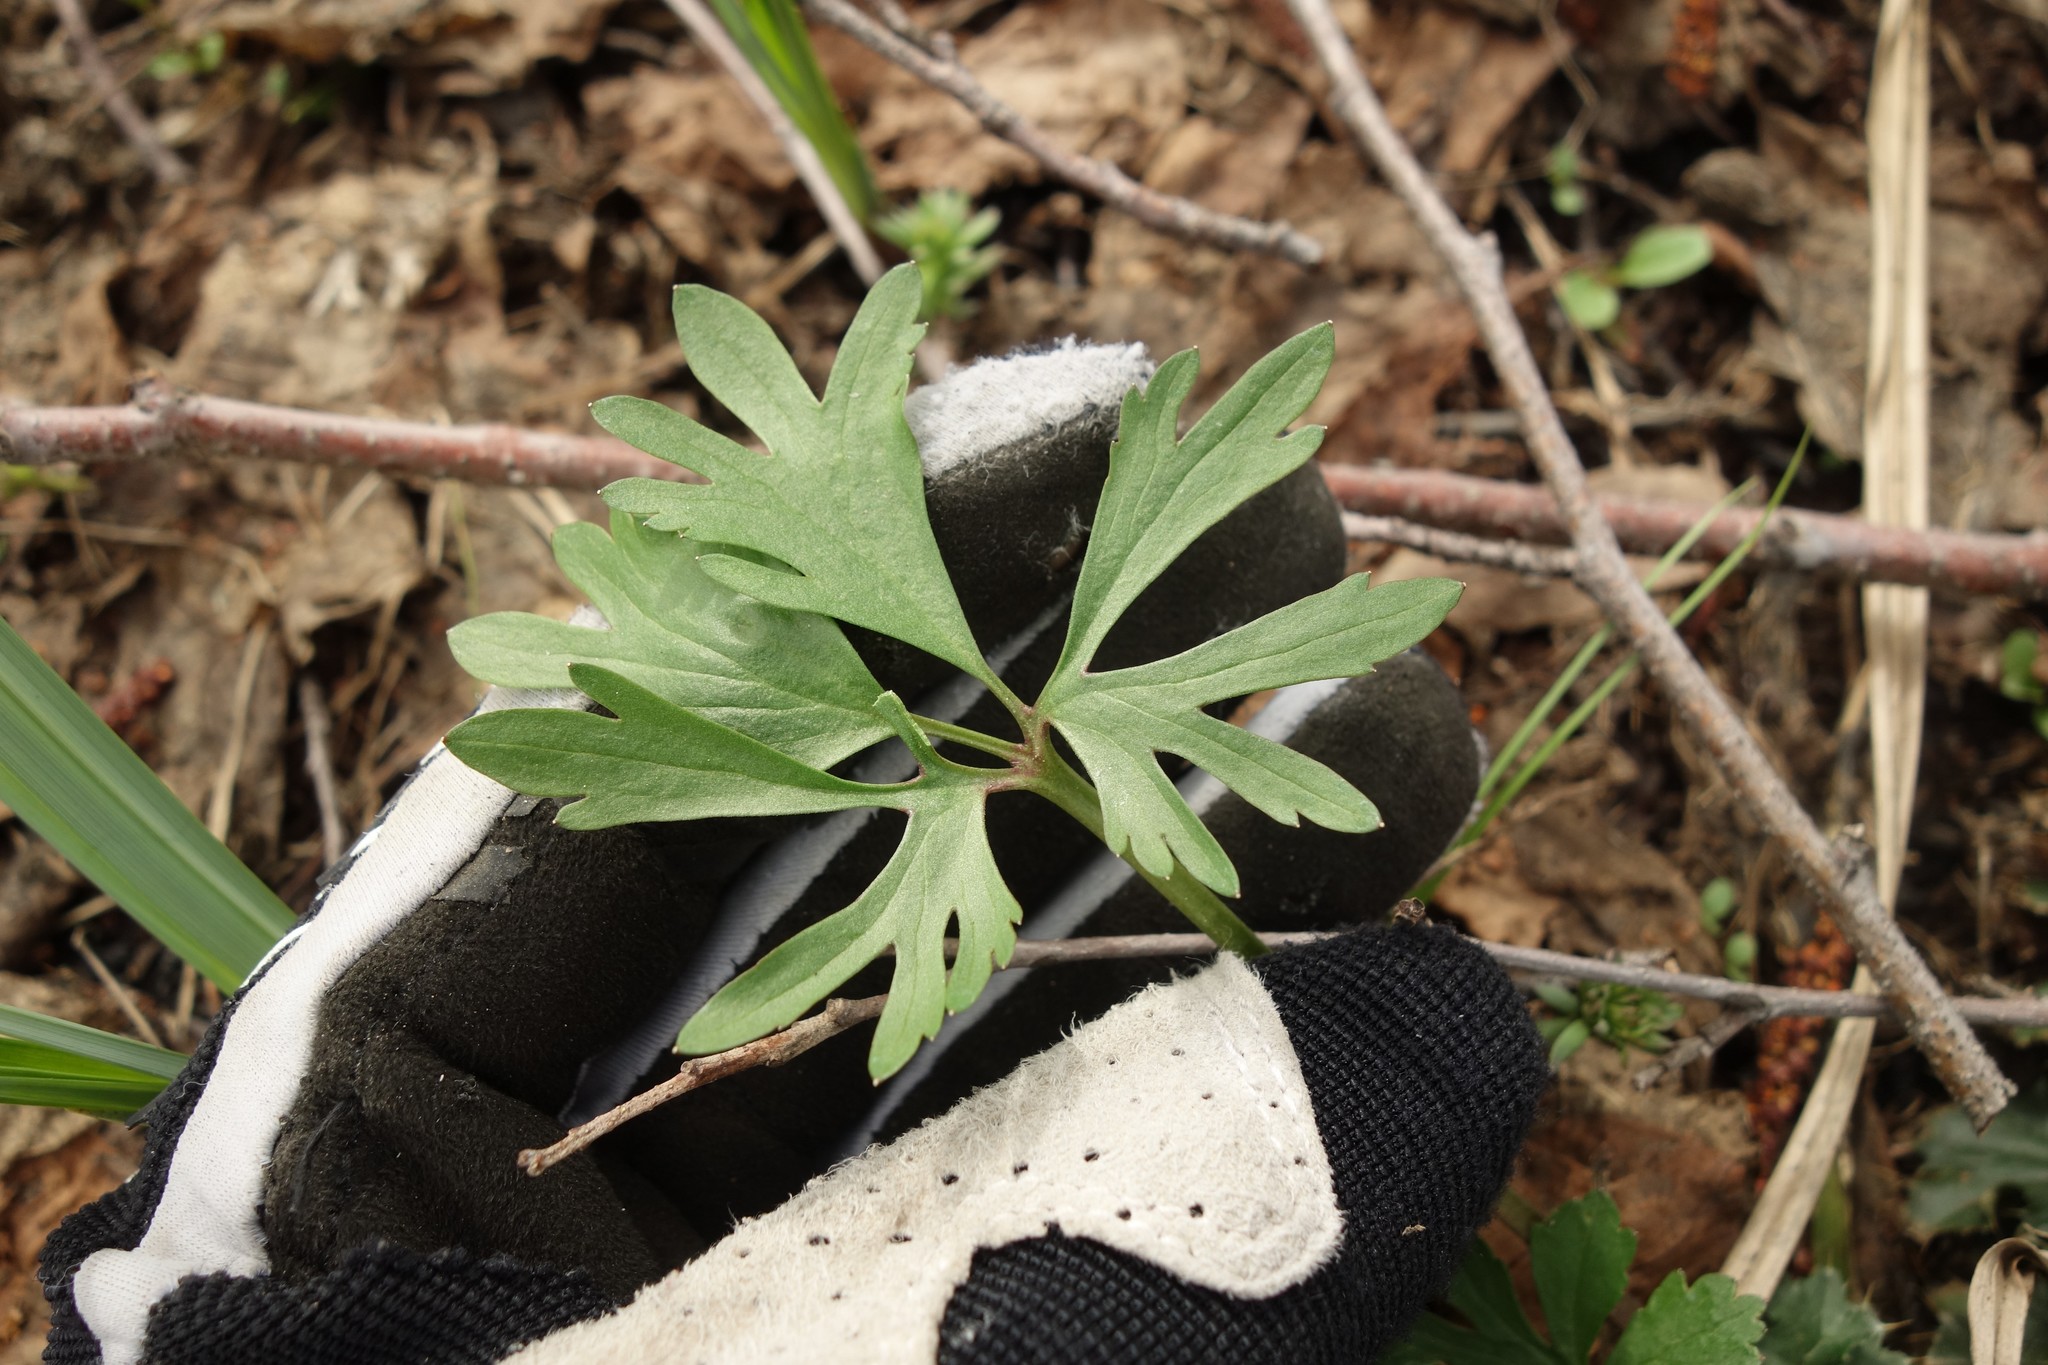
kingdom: Plantae
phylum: Tracheophyta
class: Magnoliopsida
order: Ranunculales
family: Ranunculaceae
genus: Ranunculus
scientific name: Ranunculus auricomus
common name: Goldilocks buttercup
